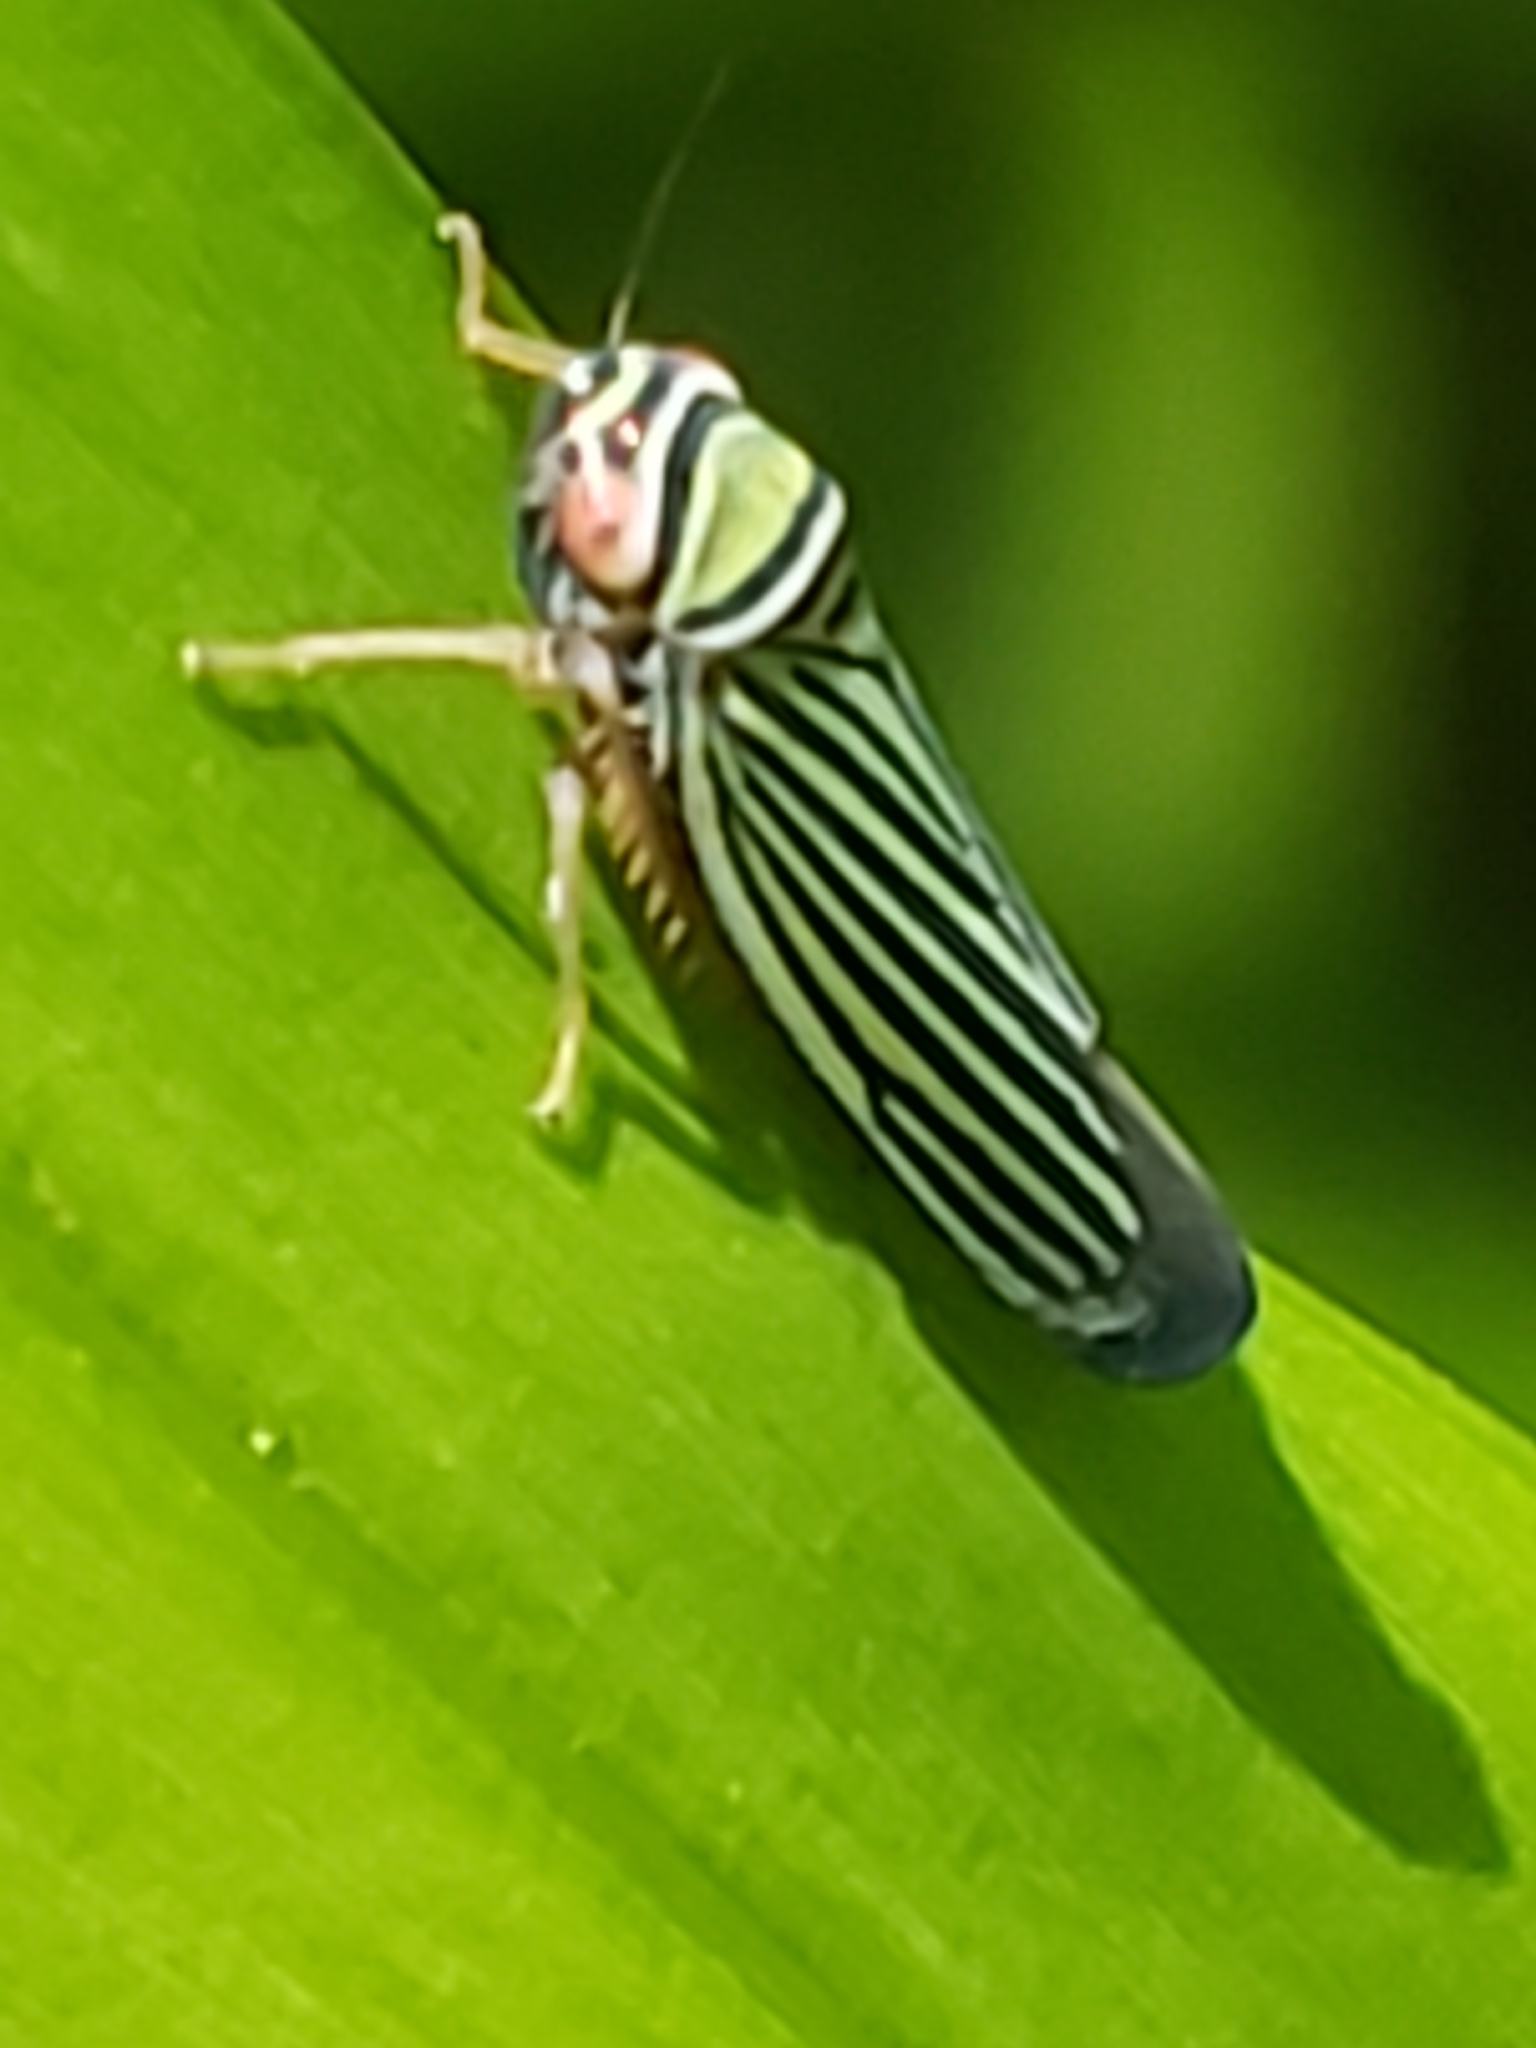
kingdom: Animalia
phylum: Arthropoda
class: Insecta
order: Hemiptera
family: Cicadellidae
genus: Tylozygus
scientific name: Tylozygus bifidus
